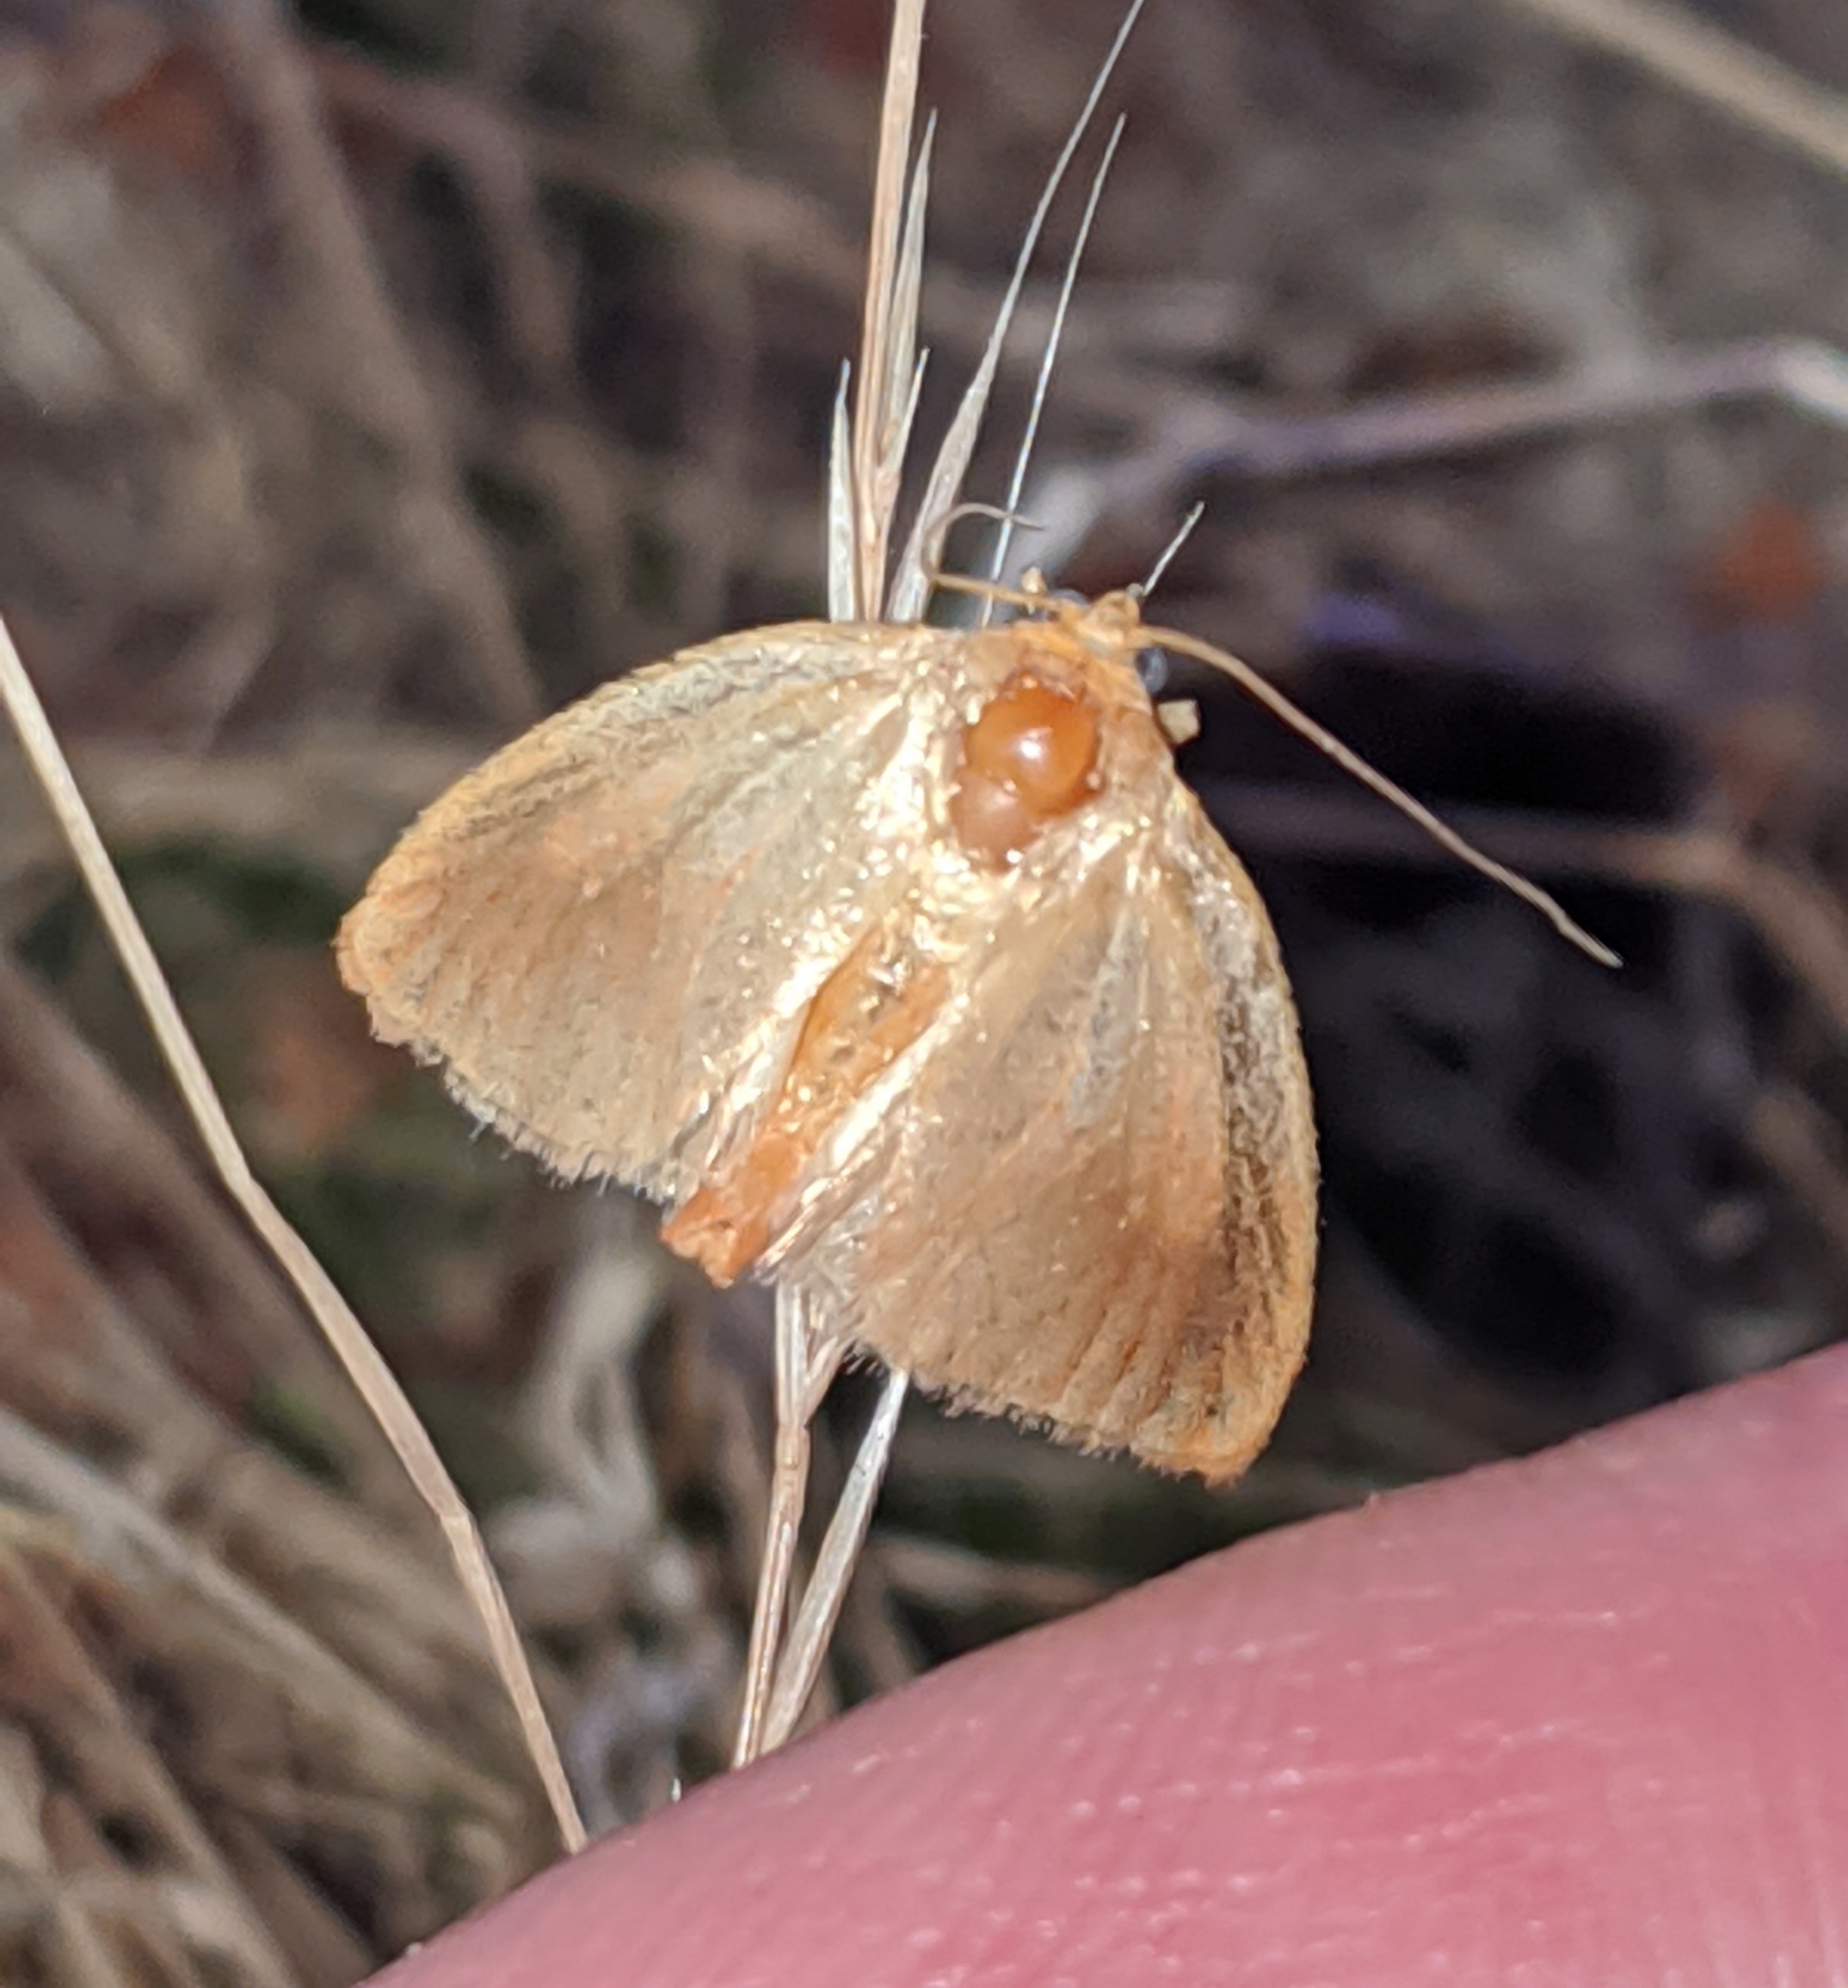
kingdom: Animalia
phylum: Arthropoda
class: Insecta
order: Lepidoptera
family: Limacodidae
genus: Tortricidia
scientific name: Tortricidia testacea
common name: Early button slug moth
